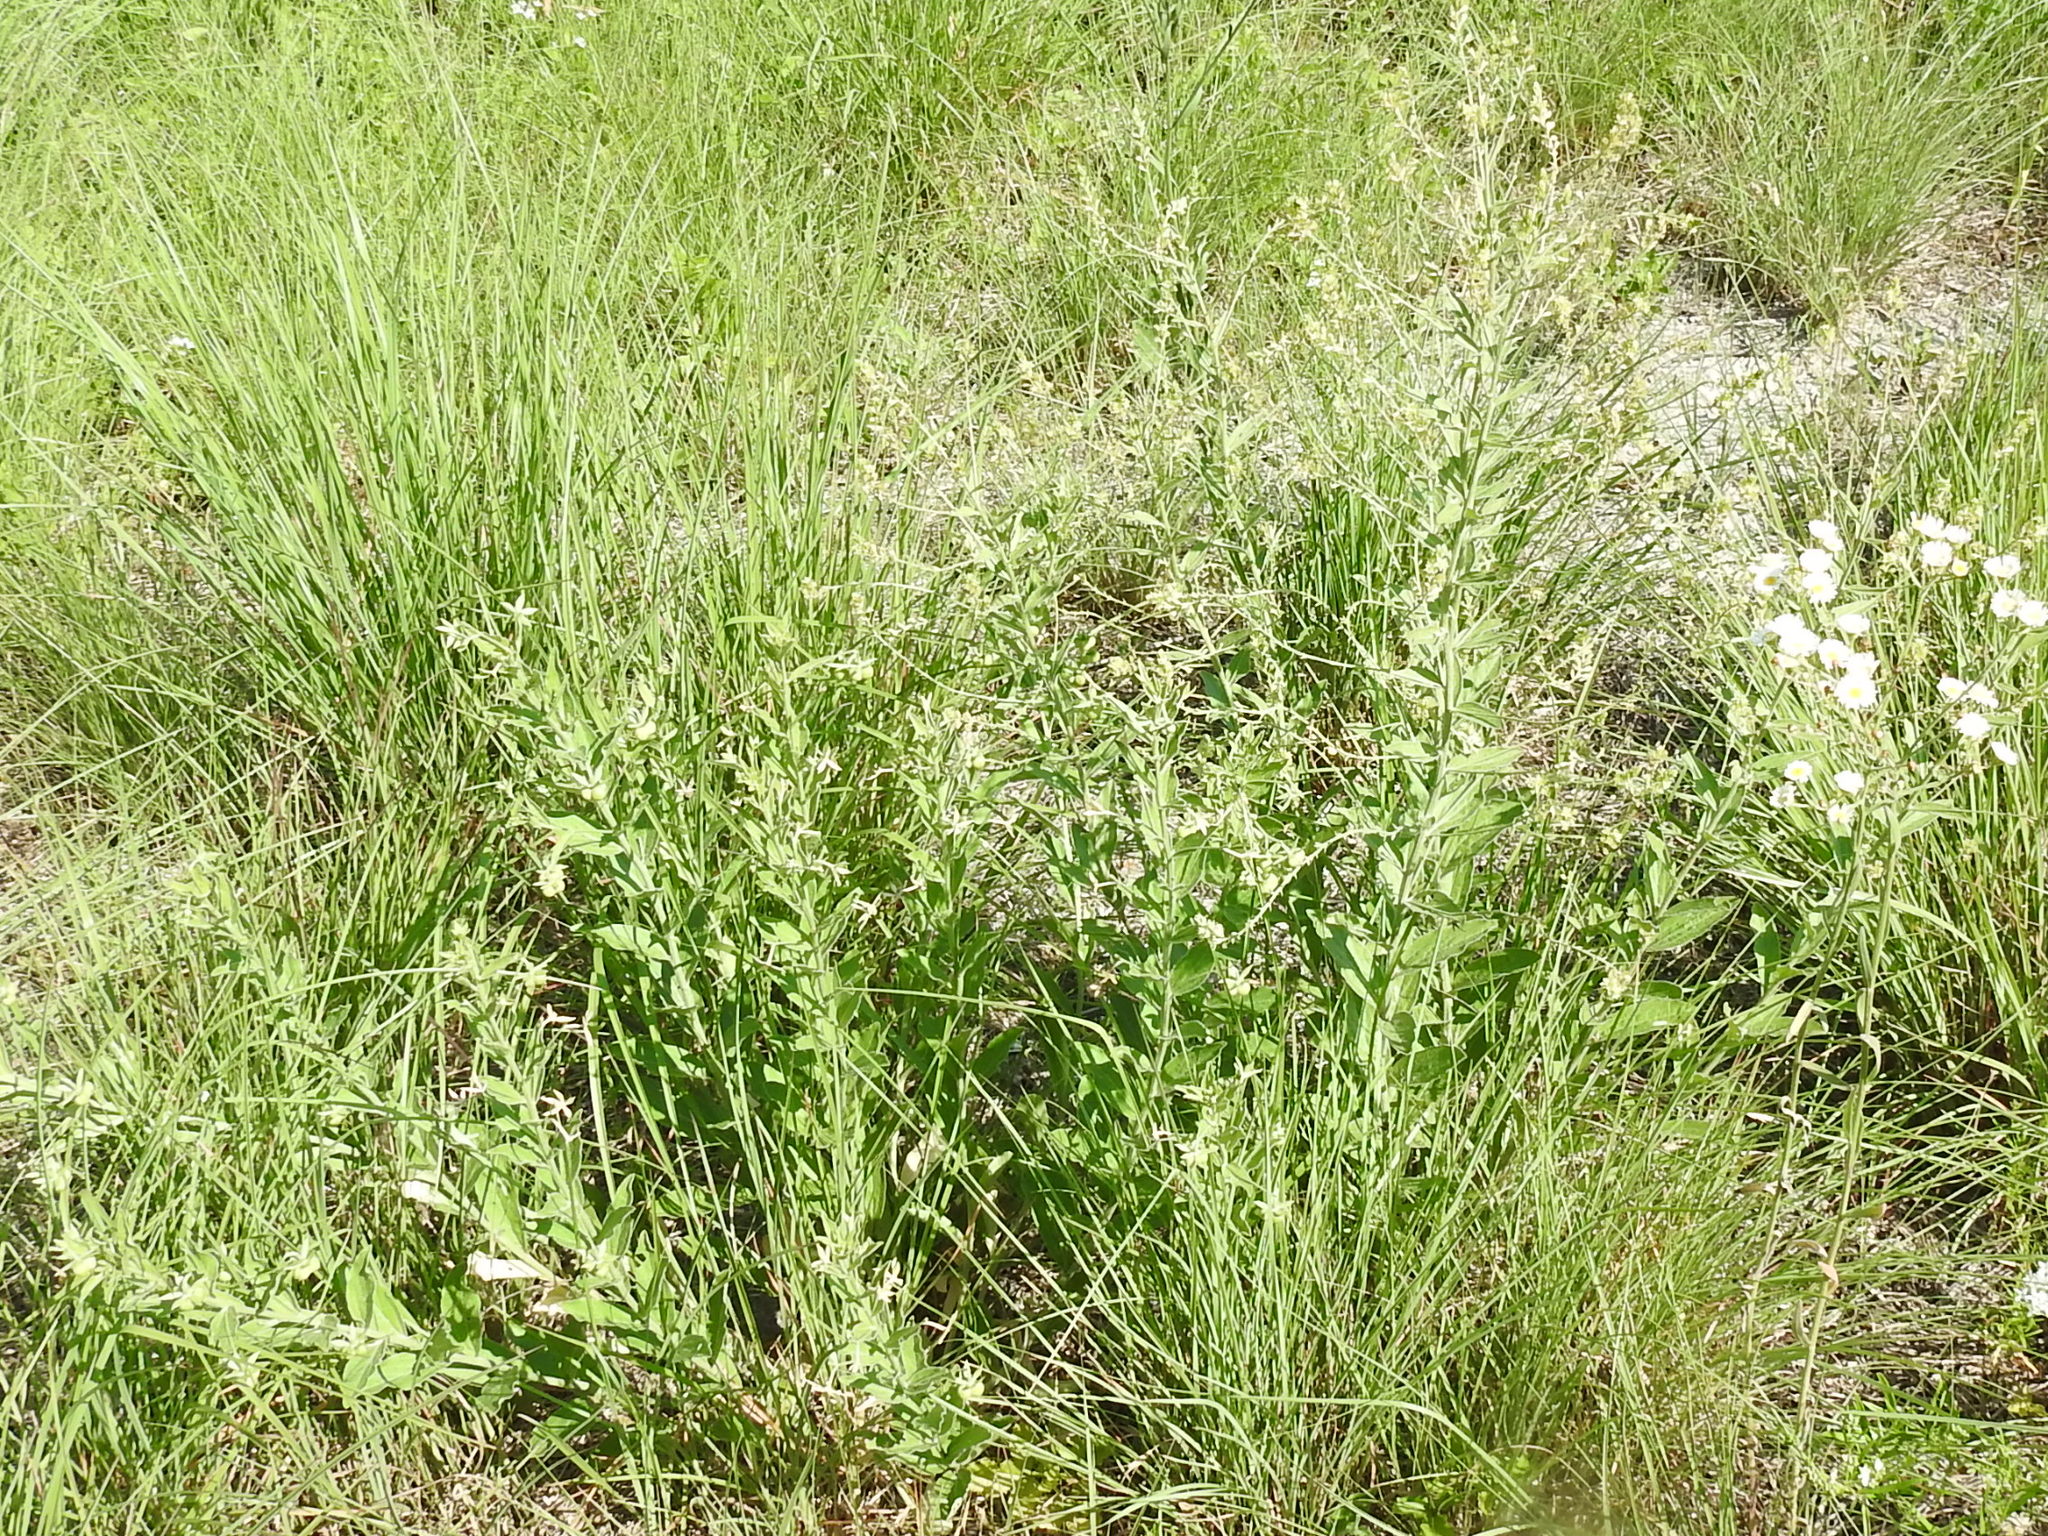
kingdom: Plantae
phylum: Tracheophyta
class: Magnoliopsida
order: Malpighiales
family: Euphorbiaceae
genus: Ditaxis
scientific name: Ditaxis mercurialina
